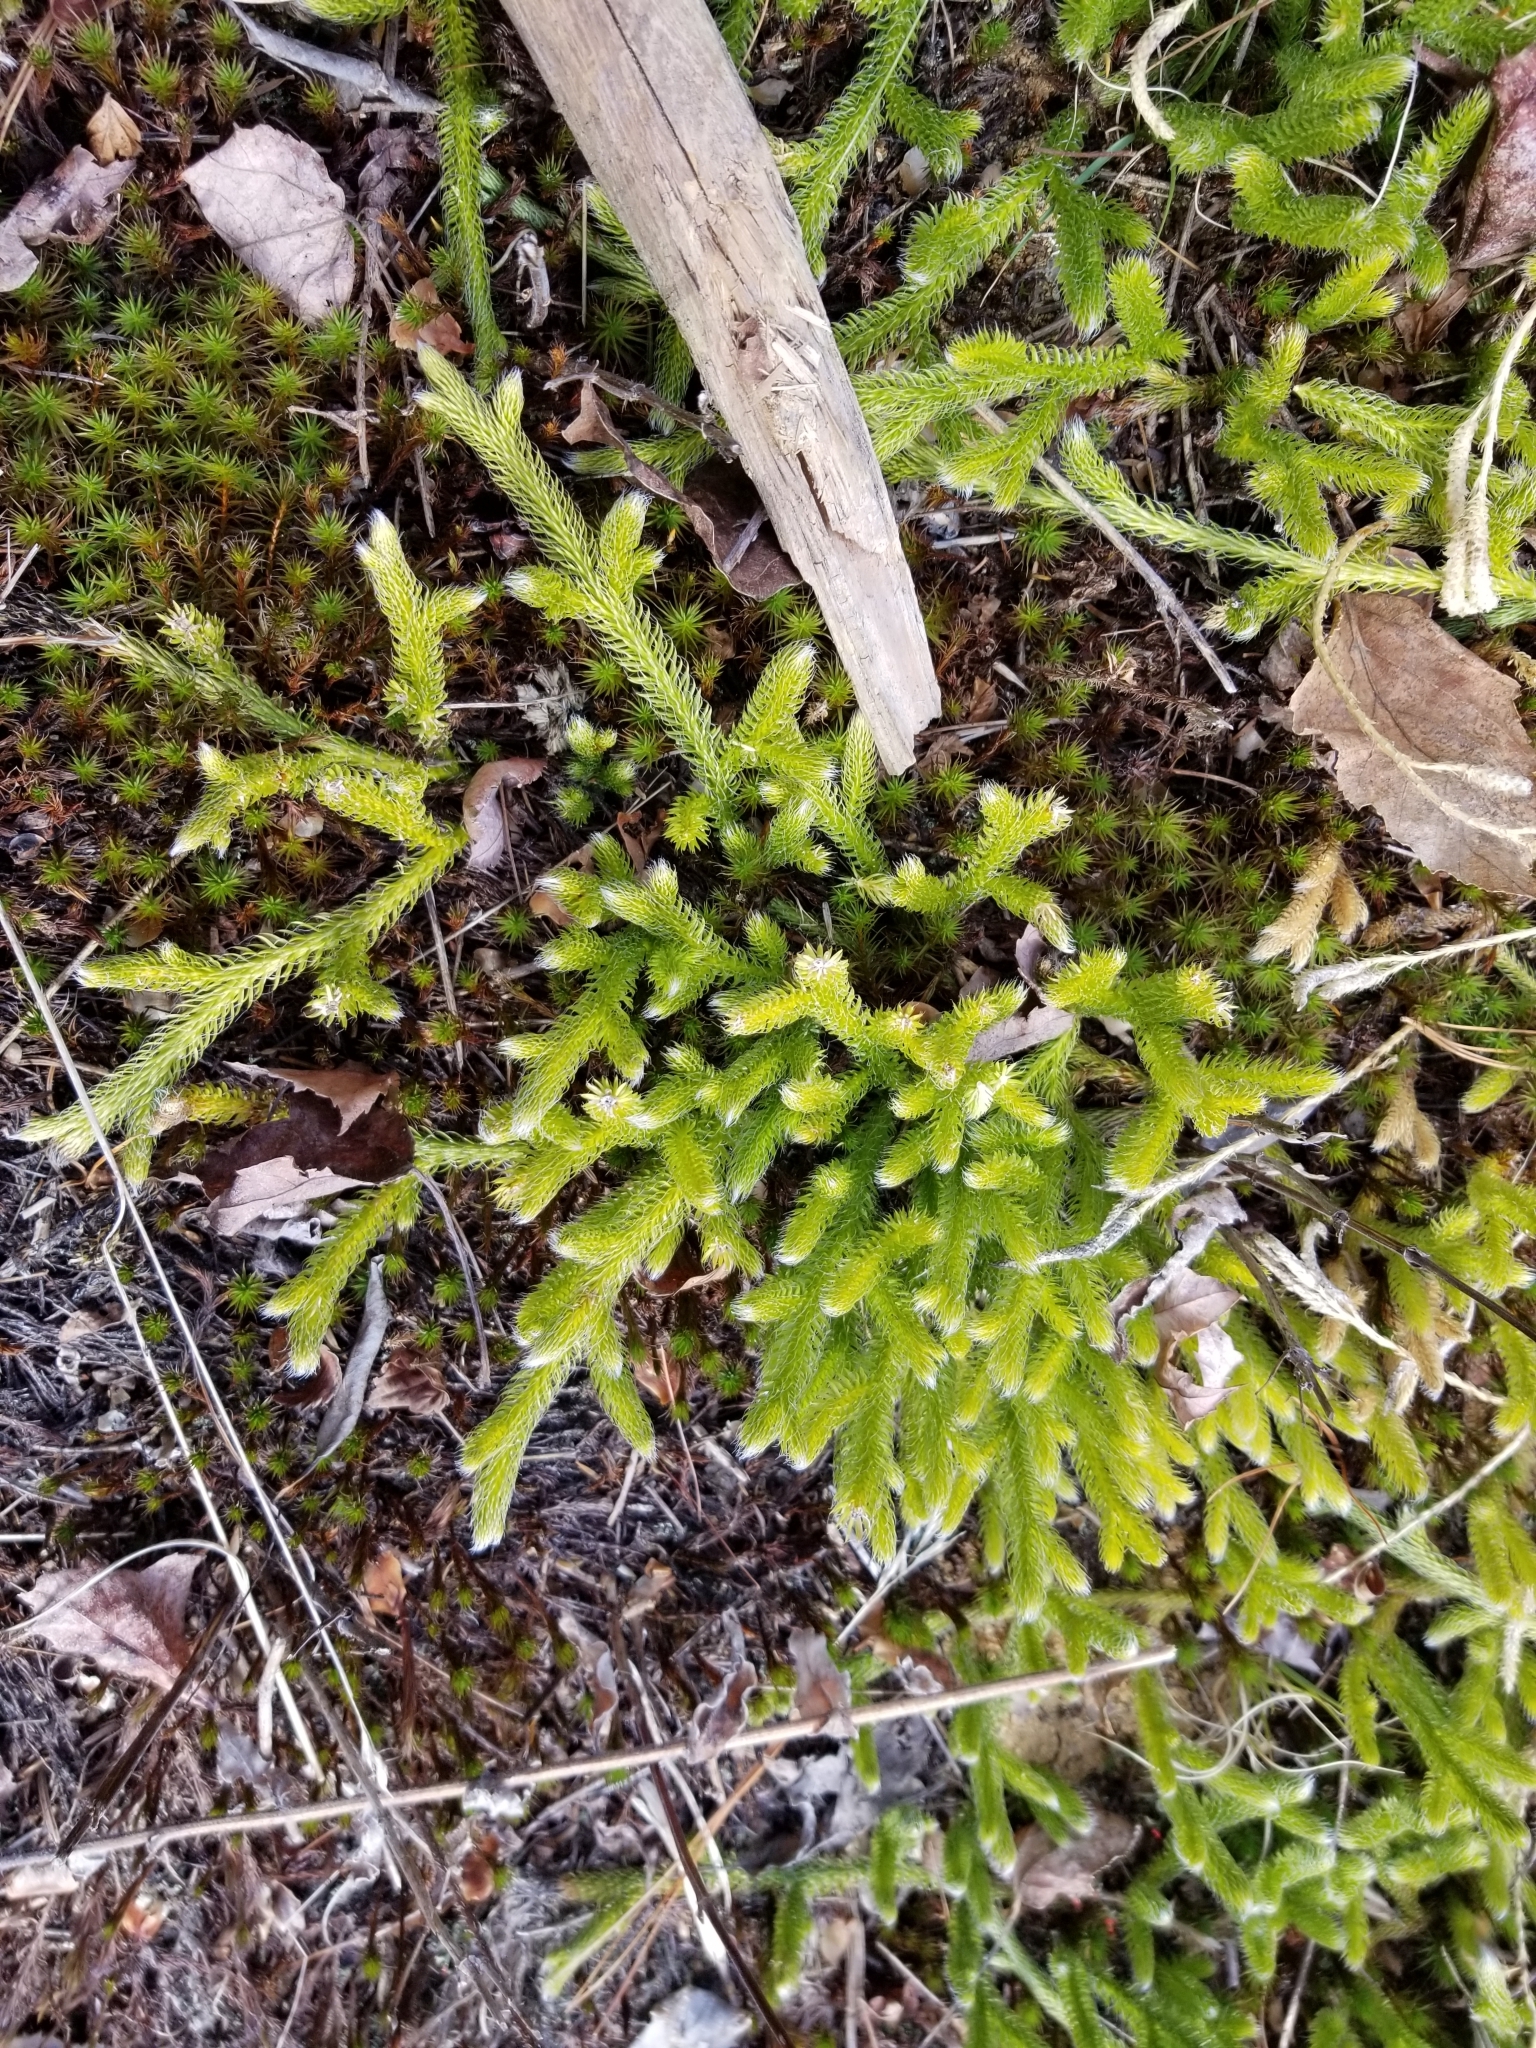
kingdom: Plantae
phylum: Tracheophyta
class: Lycopodiopsida
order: Lycopodiales
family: Lycopodiaceae
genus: Lycopodium
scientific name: Lycopodium clavatum
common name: Stag's-horn clubmoss
